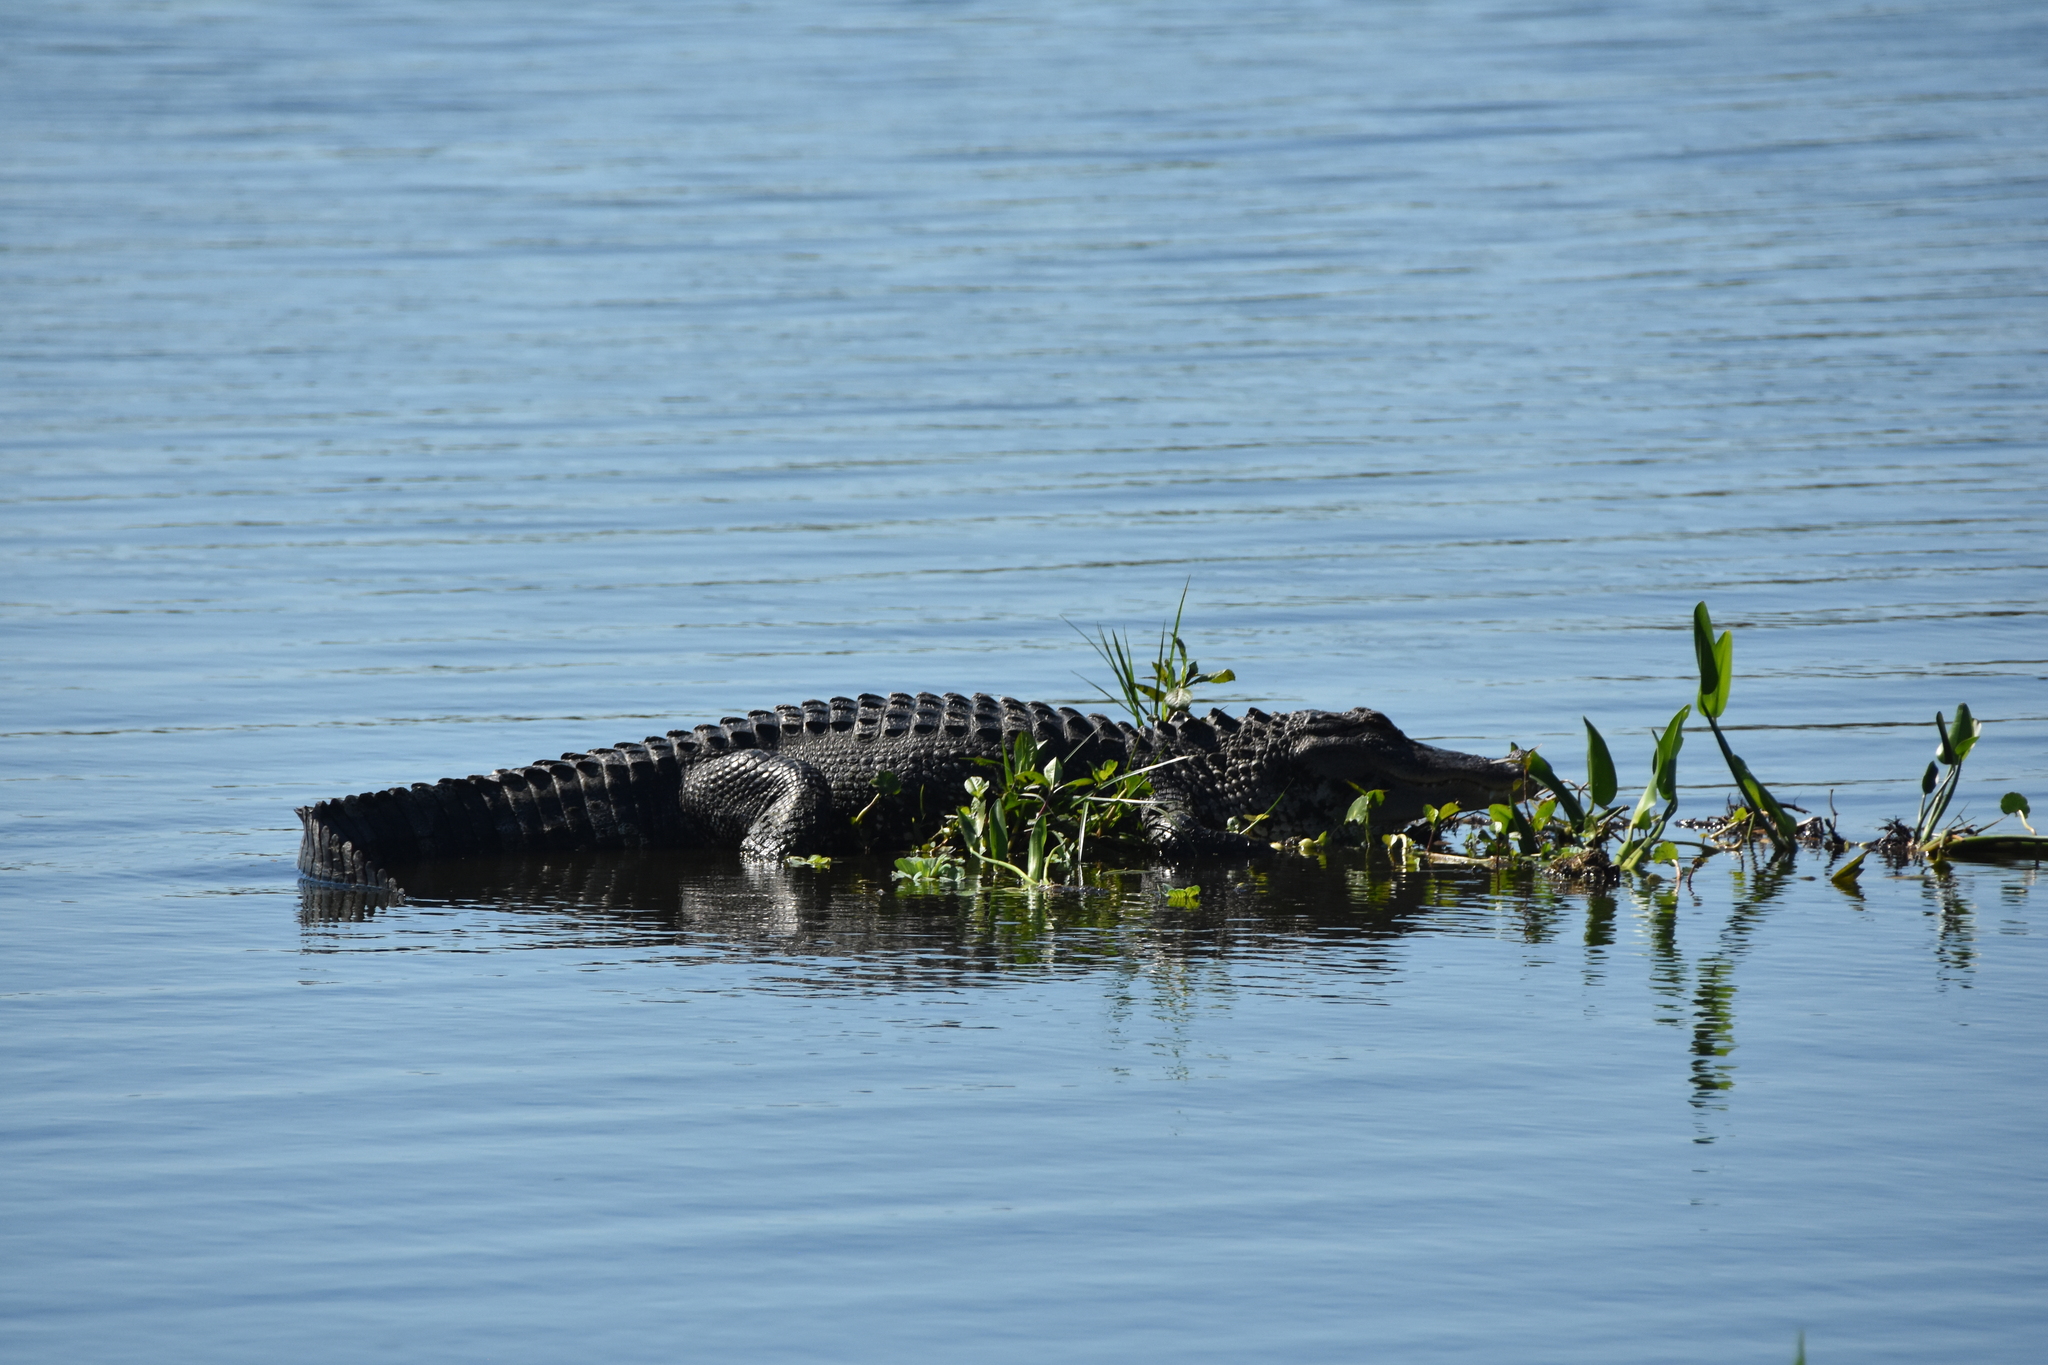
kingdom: Animalia
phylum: Chordata
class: Crocodylia
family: Alligatoridae
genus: Alligator
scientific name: Alligator mississippiensis
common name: American alligator
